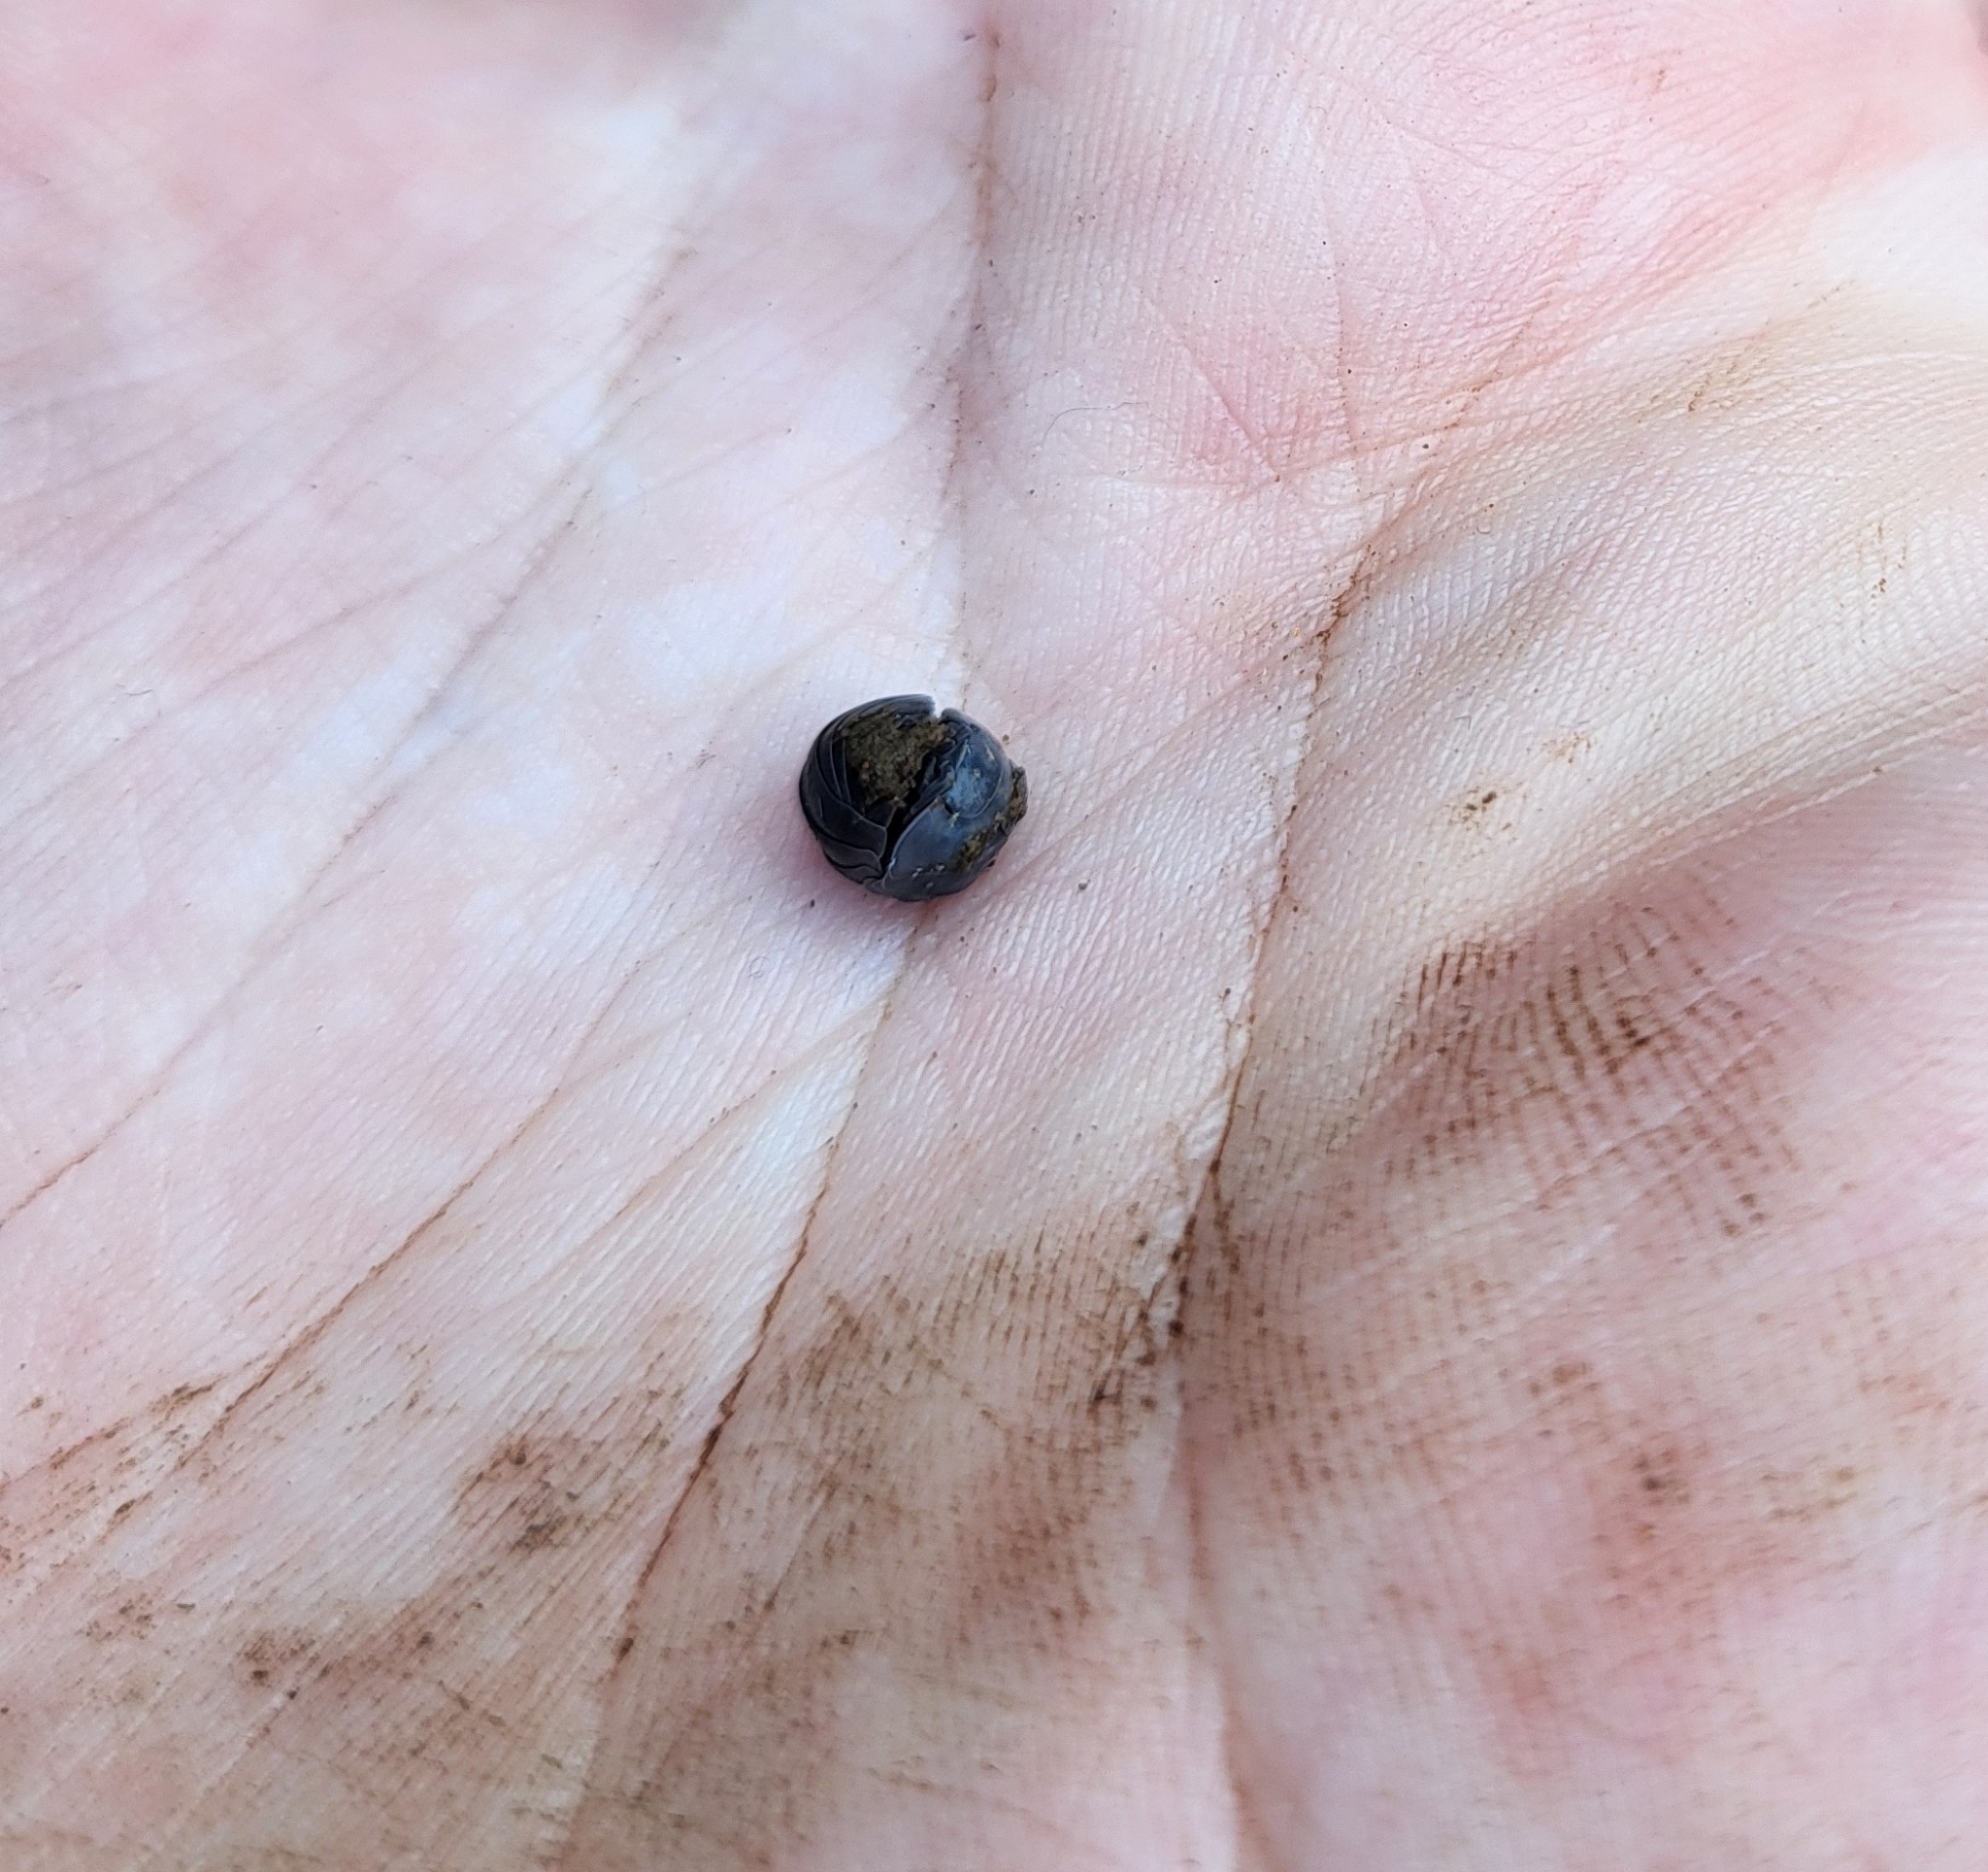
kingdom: Animalia
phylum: Arthropoda
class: Malacostraca
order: Isopoda
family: Armadillidiidae
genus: Armadillidium
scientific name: Armadillidium vulgare
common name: Common pill woodlouse
